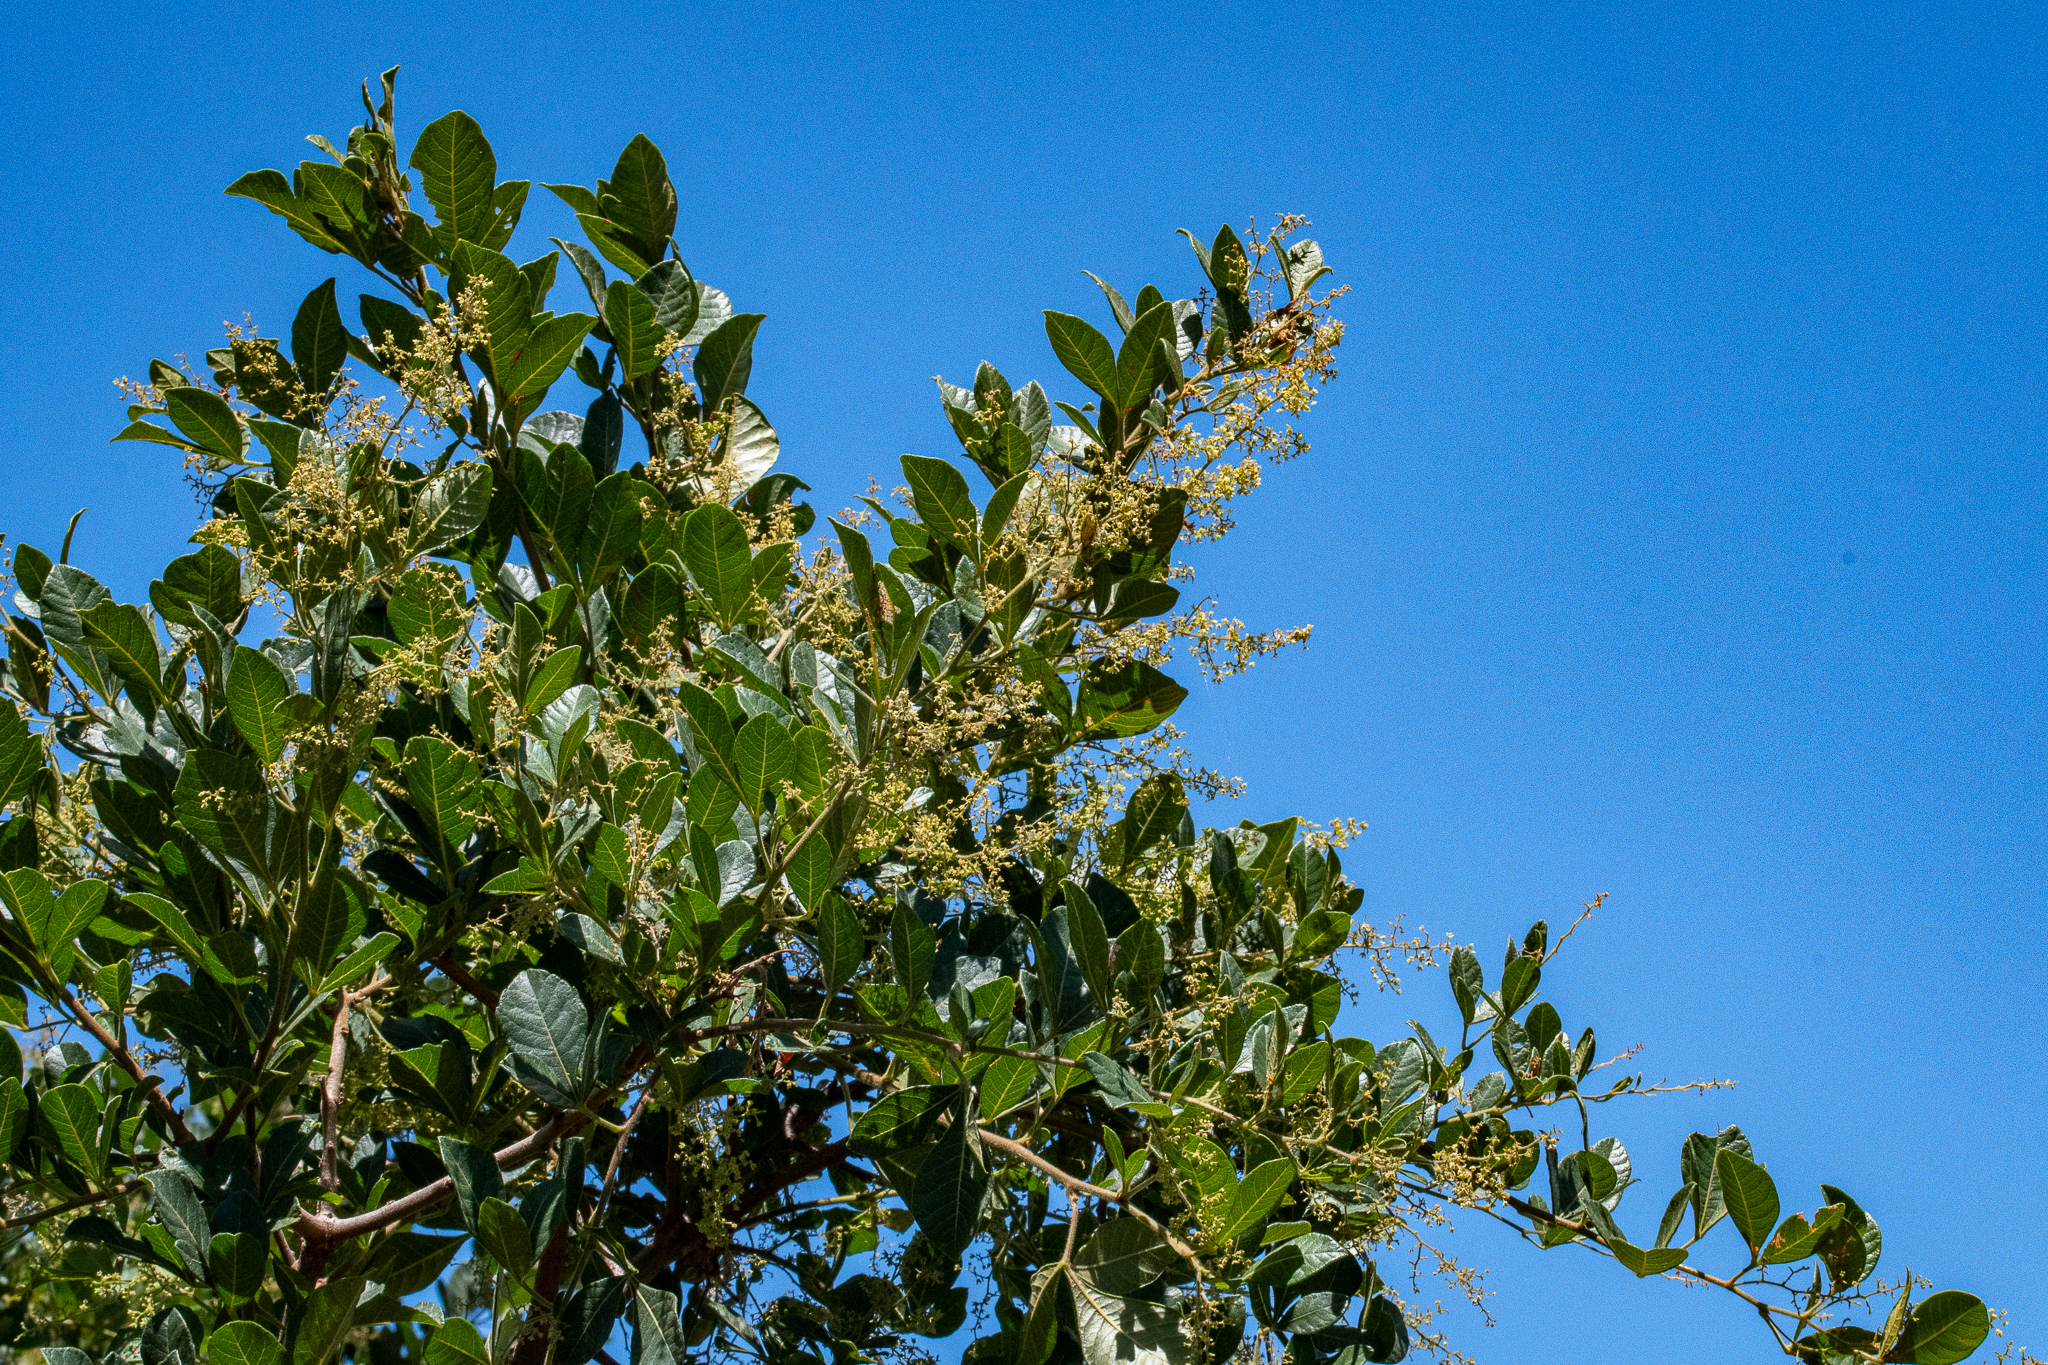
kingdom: Plantae
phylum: Tracheophyta
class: Magnoliopsida
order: Sapindales
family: Anacardiaceae
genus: Searsia
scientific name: Searsia laevigata
